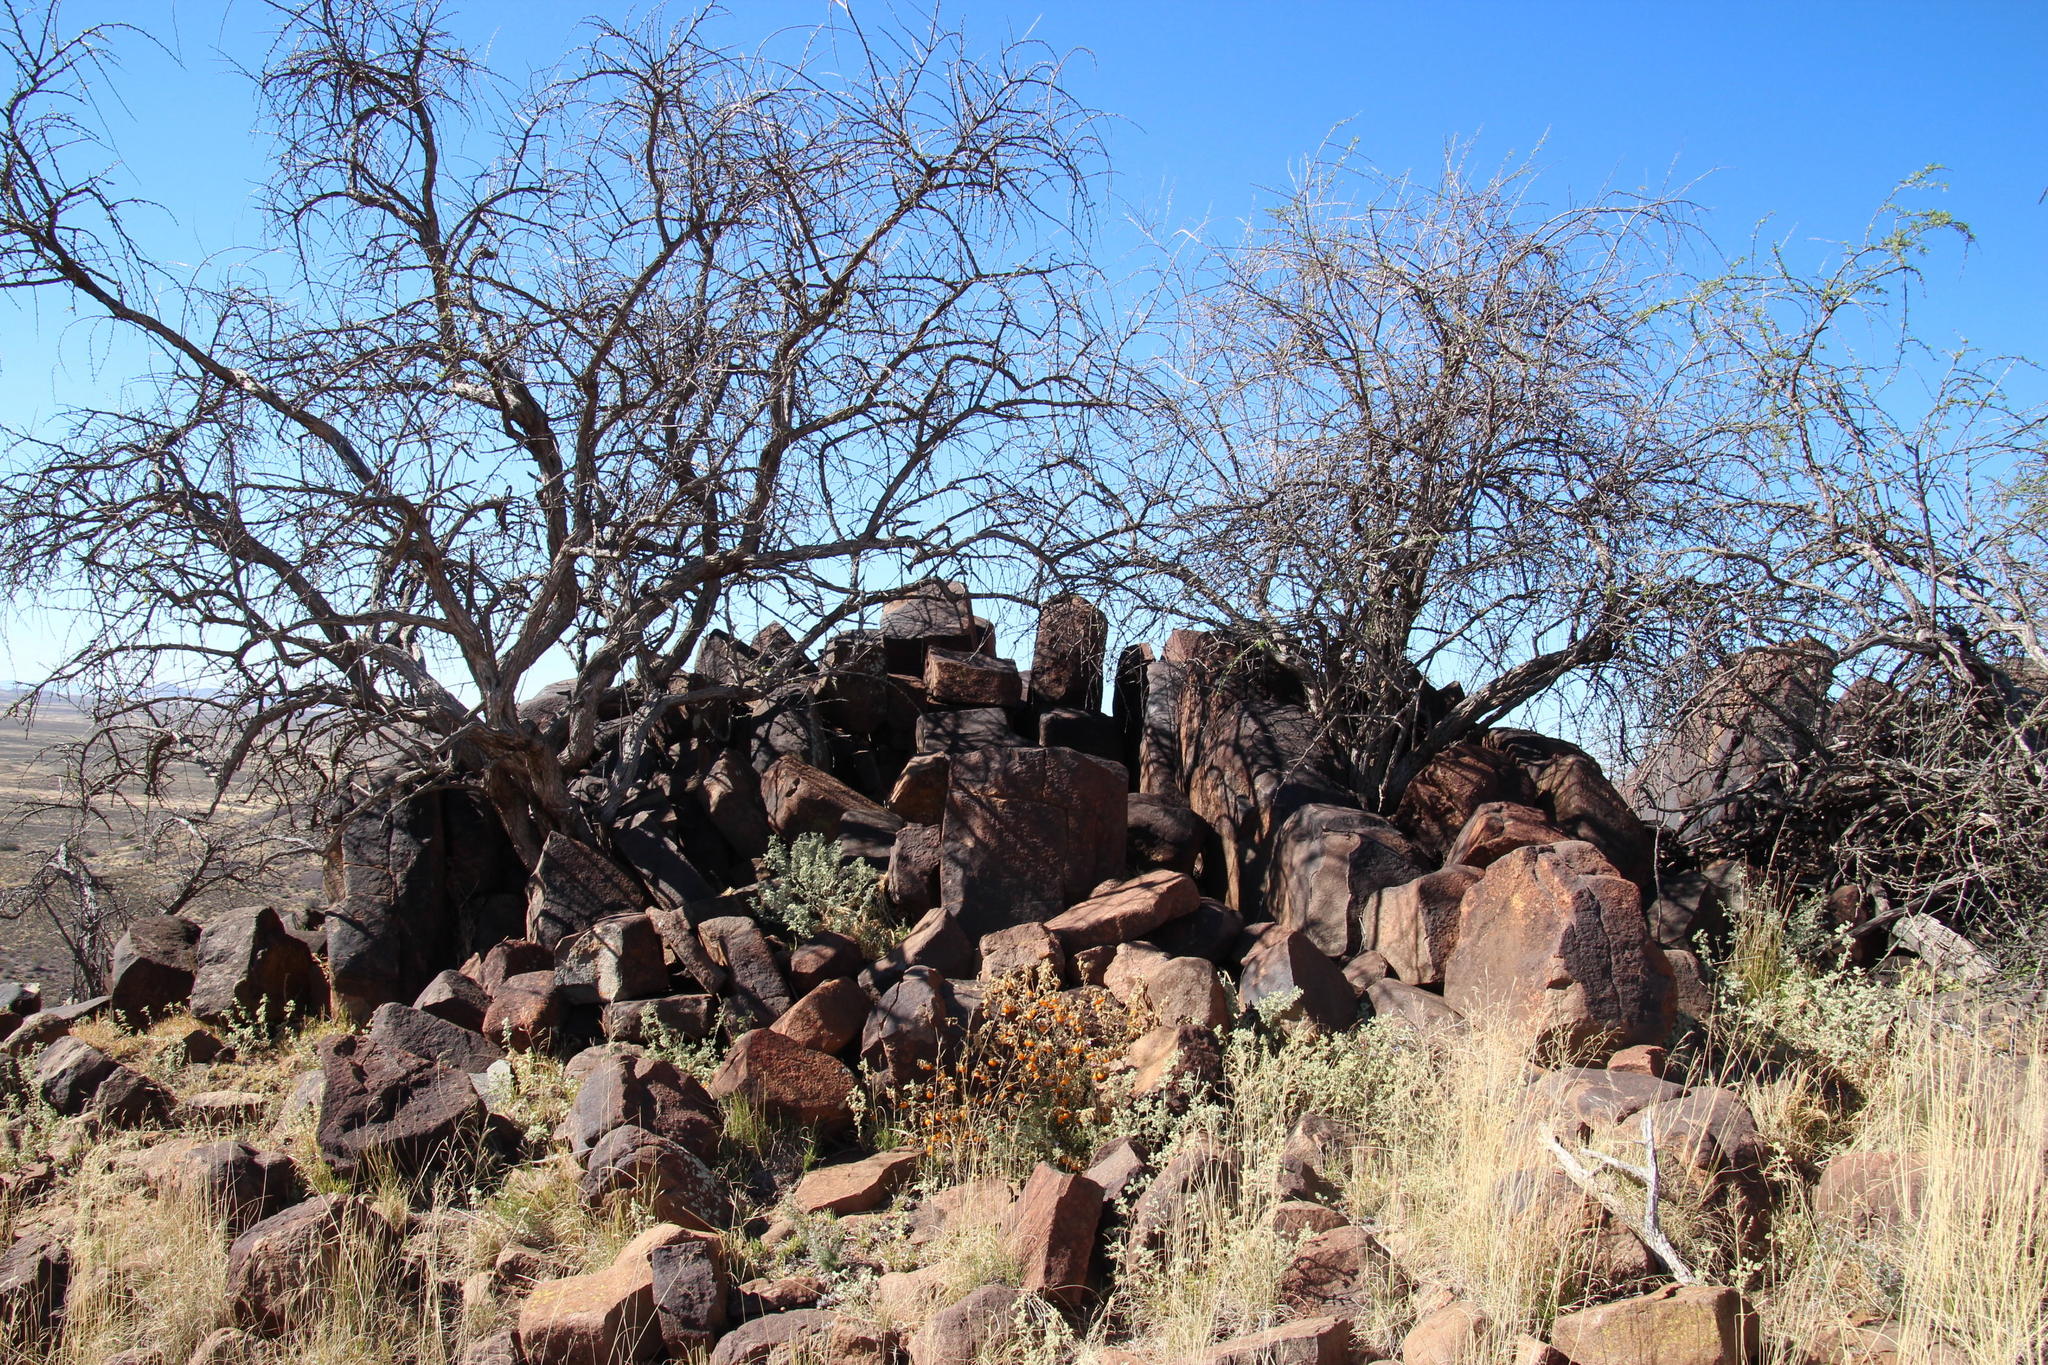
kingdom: Plantae
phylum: Tracheophyta
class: Magnoliopsida
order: Solanales
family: Solanaceae
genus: Solanum
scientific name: Solanum tomentosum
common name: Wild aubergine
